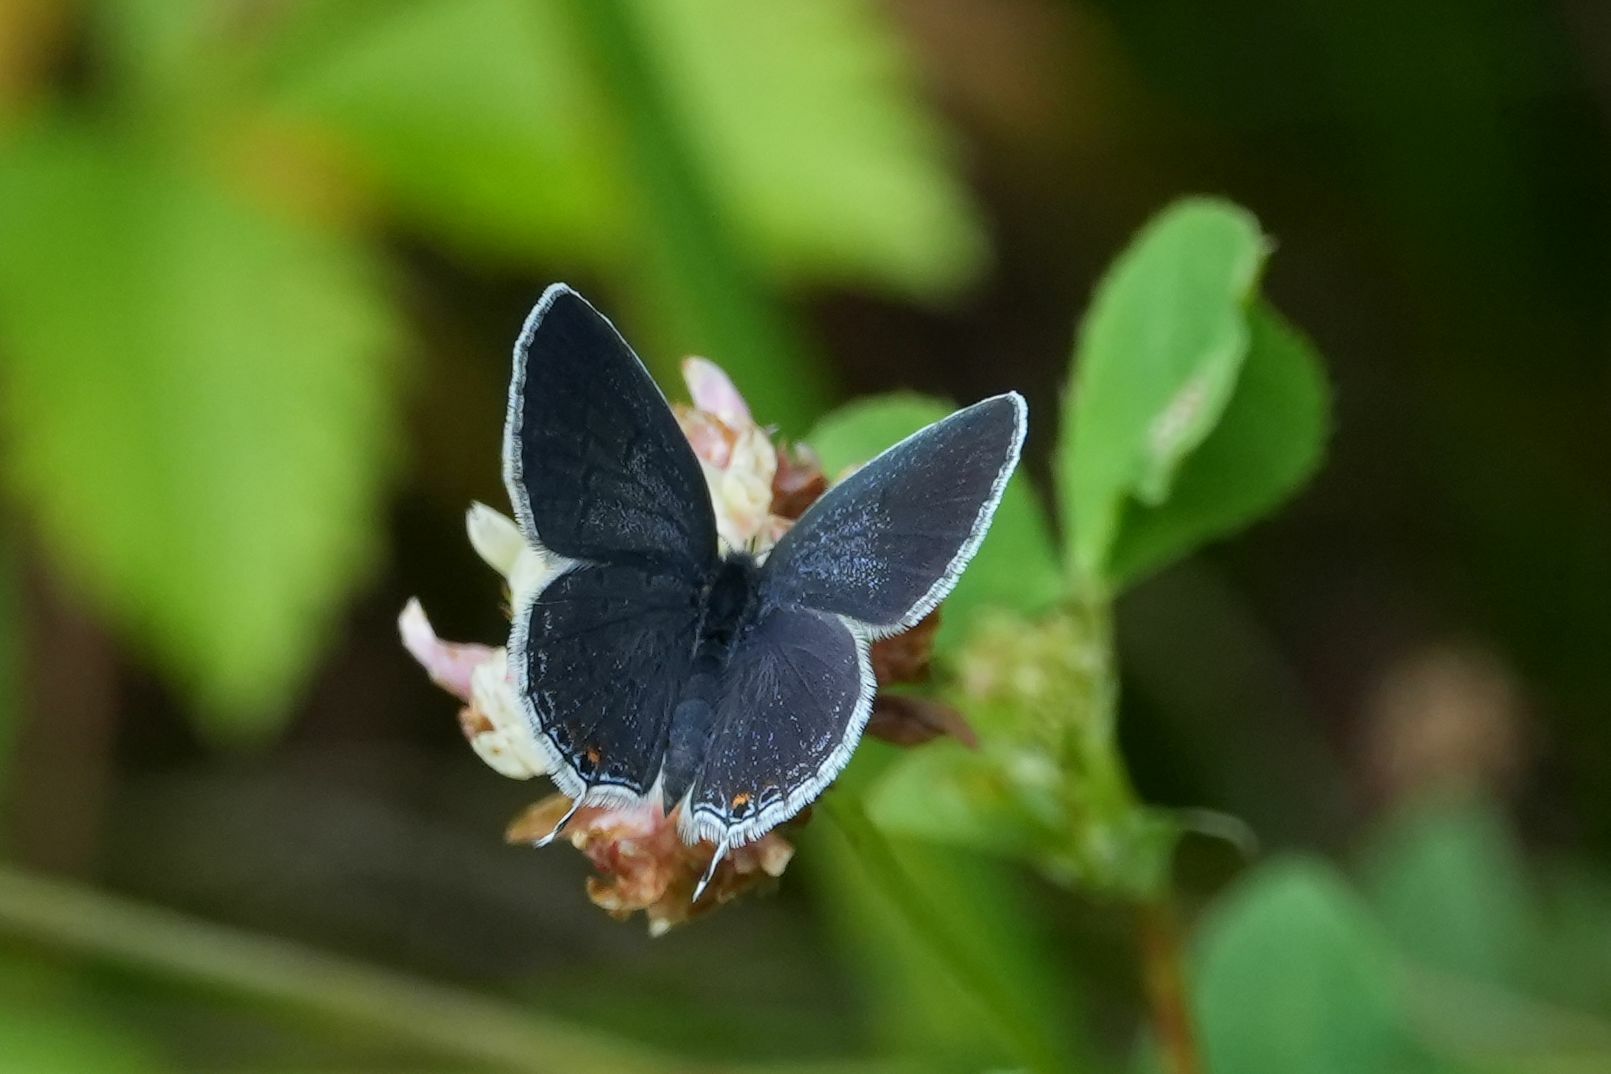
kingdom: Animalia
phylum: Arthropoda
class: Insecta
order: Lepidoptera
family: Lycaenidae
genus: Elkalyce
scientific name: Elkalyce comyntas
